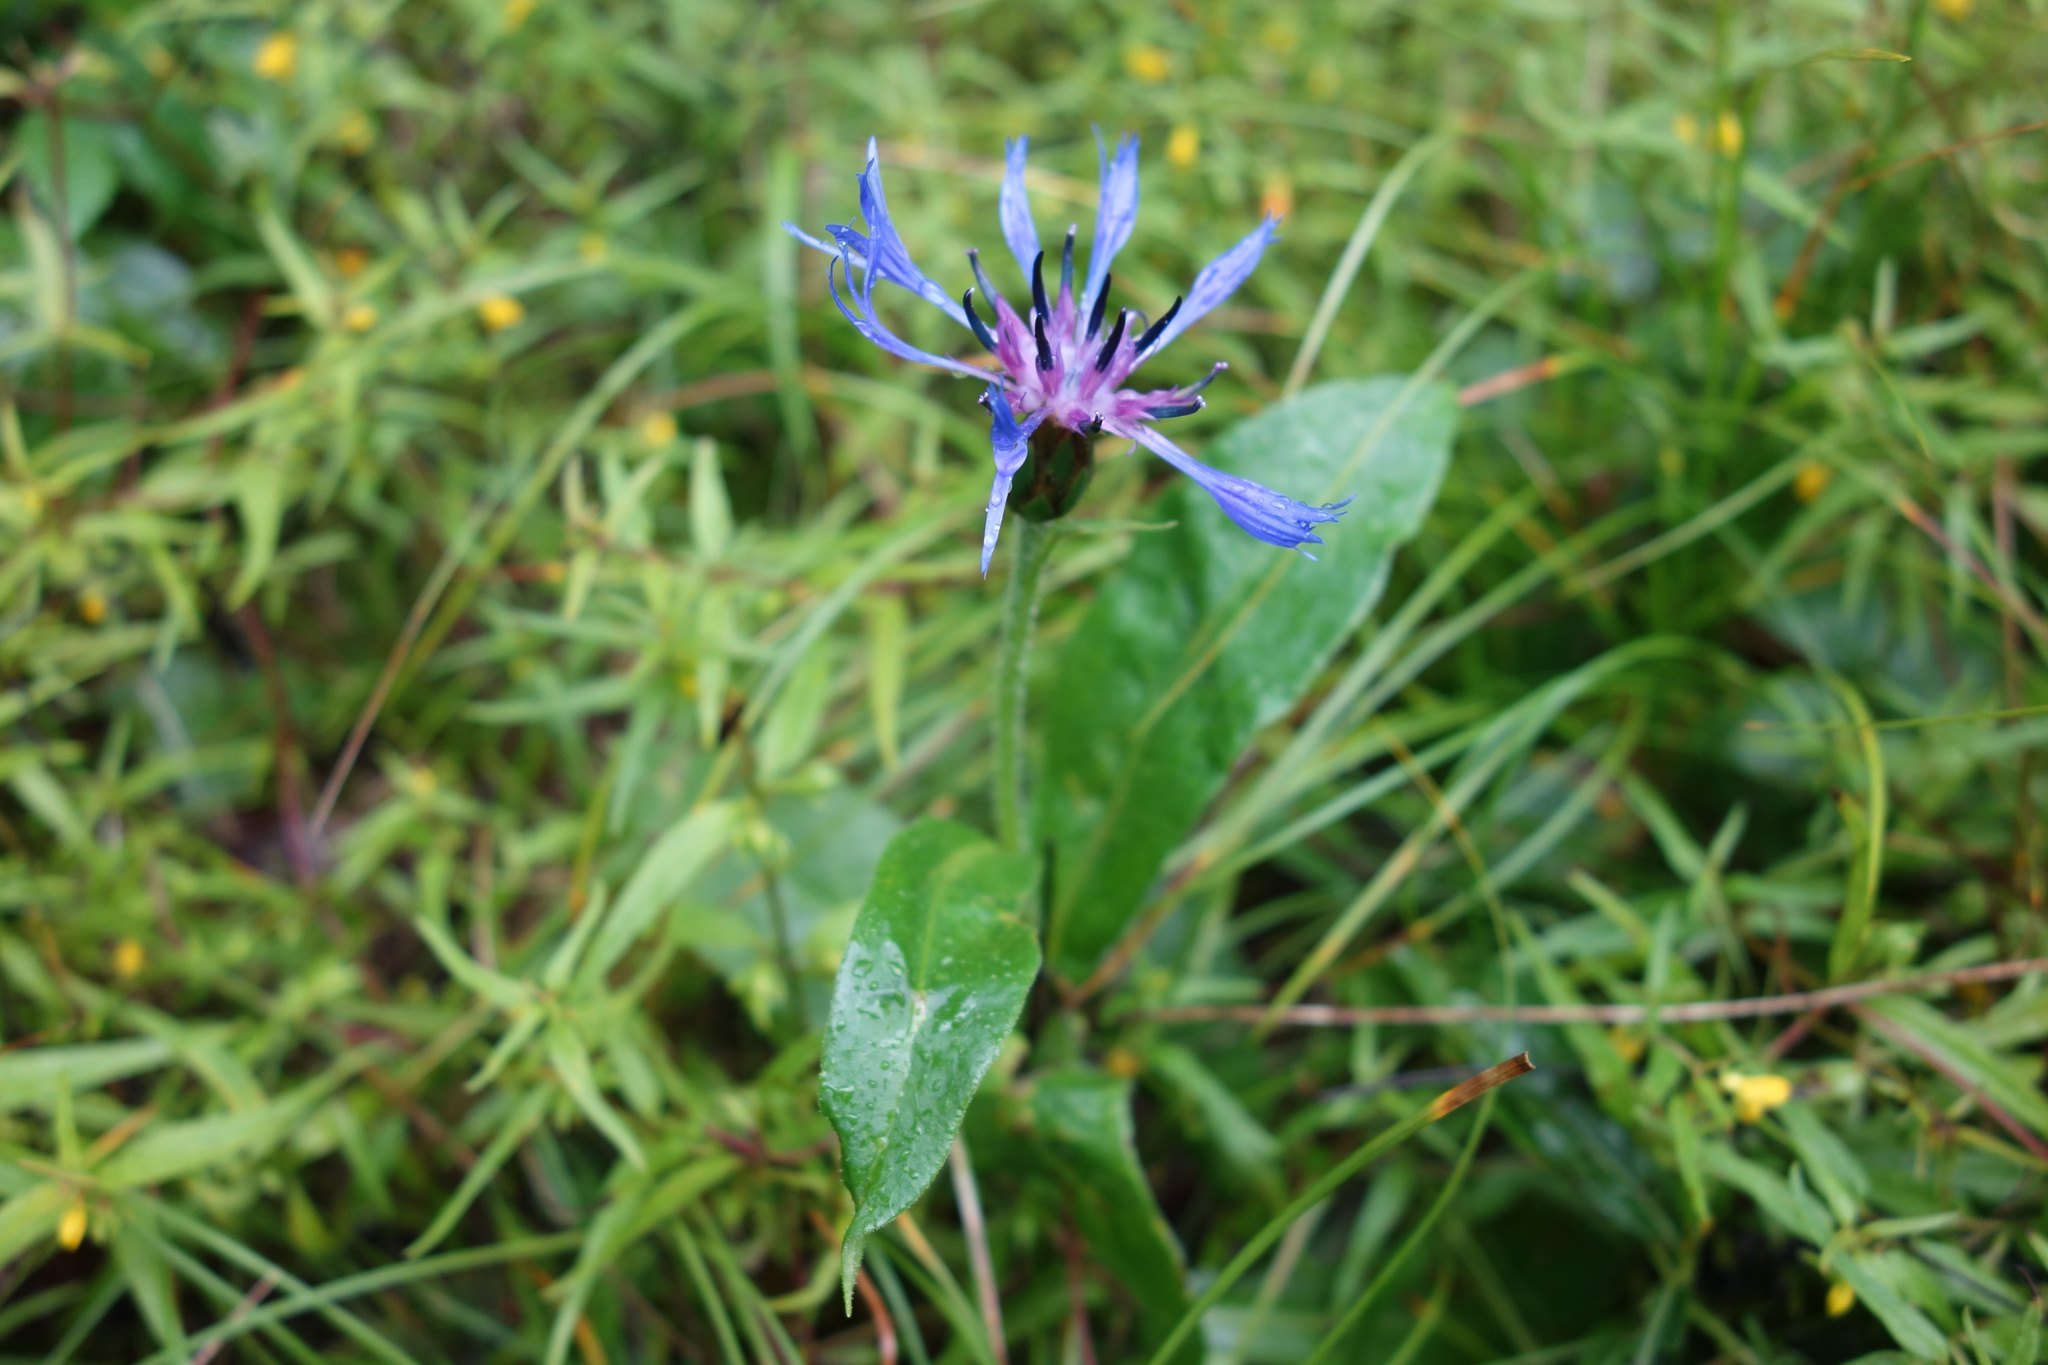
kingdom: Plantae
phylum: Tracheophyta
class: Magnoliopsida
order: Asterales
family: Asteraceae
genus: Centaurea
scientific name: Centaurea montana
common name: Perennial cornflower
